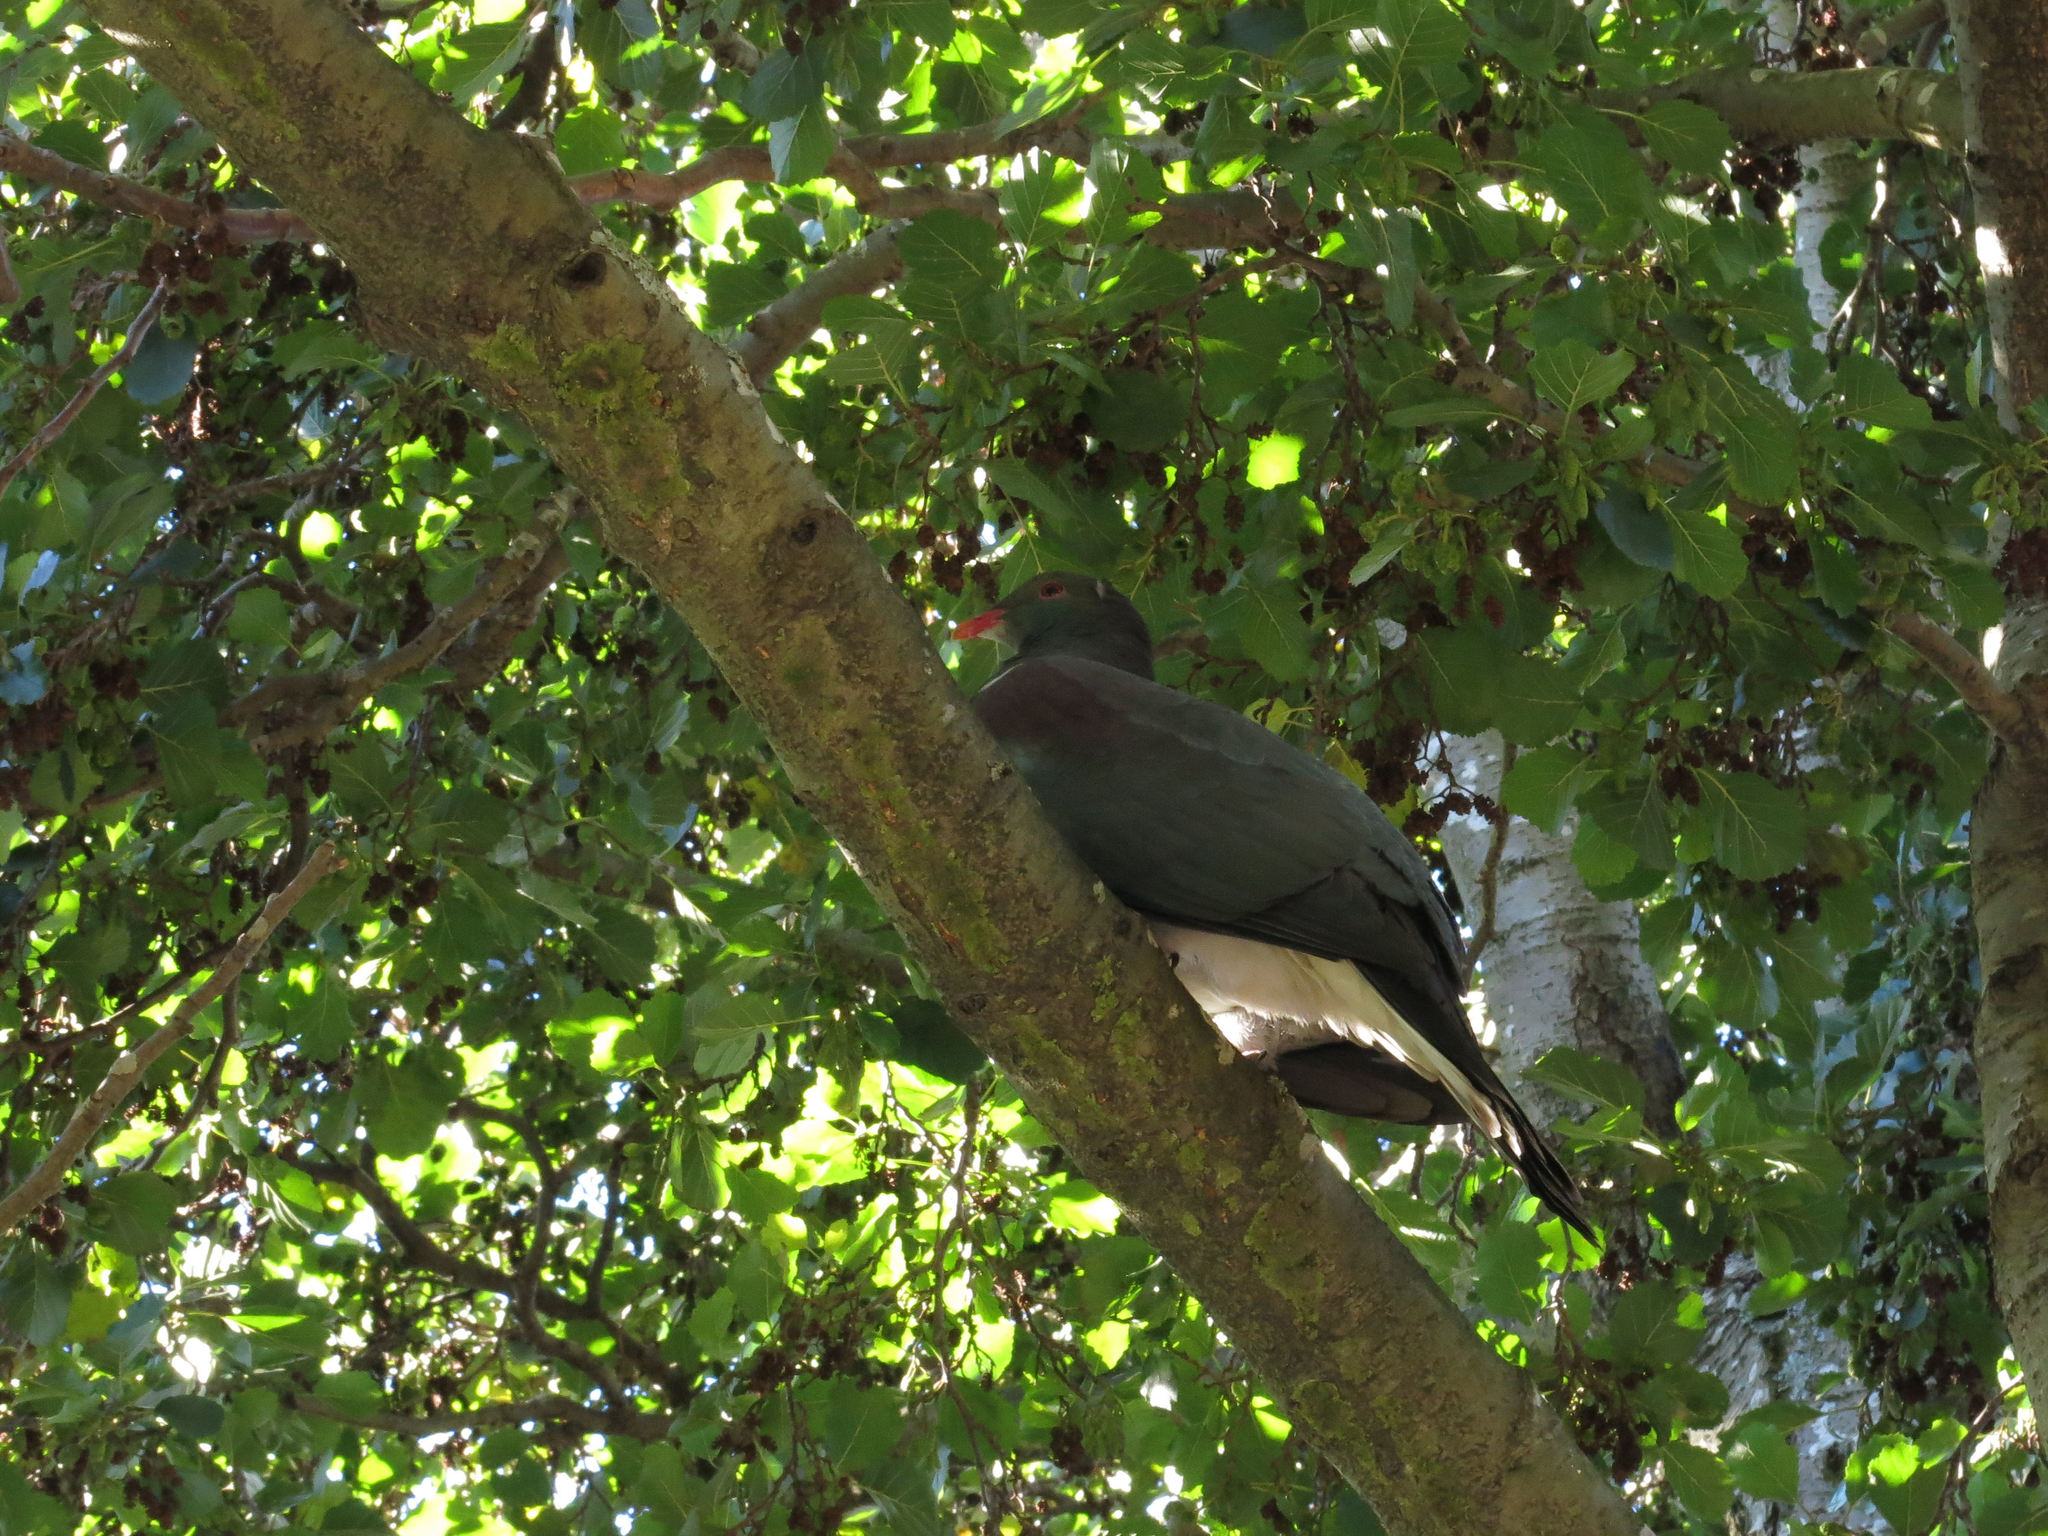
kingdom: Animalia
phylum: Chordata
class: Aves
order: Columbiformes
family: Columbidae
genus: Hemiphaga
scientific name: Hemiphaga novaeseelandiae
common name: New zealand pigeon
